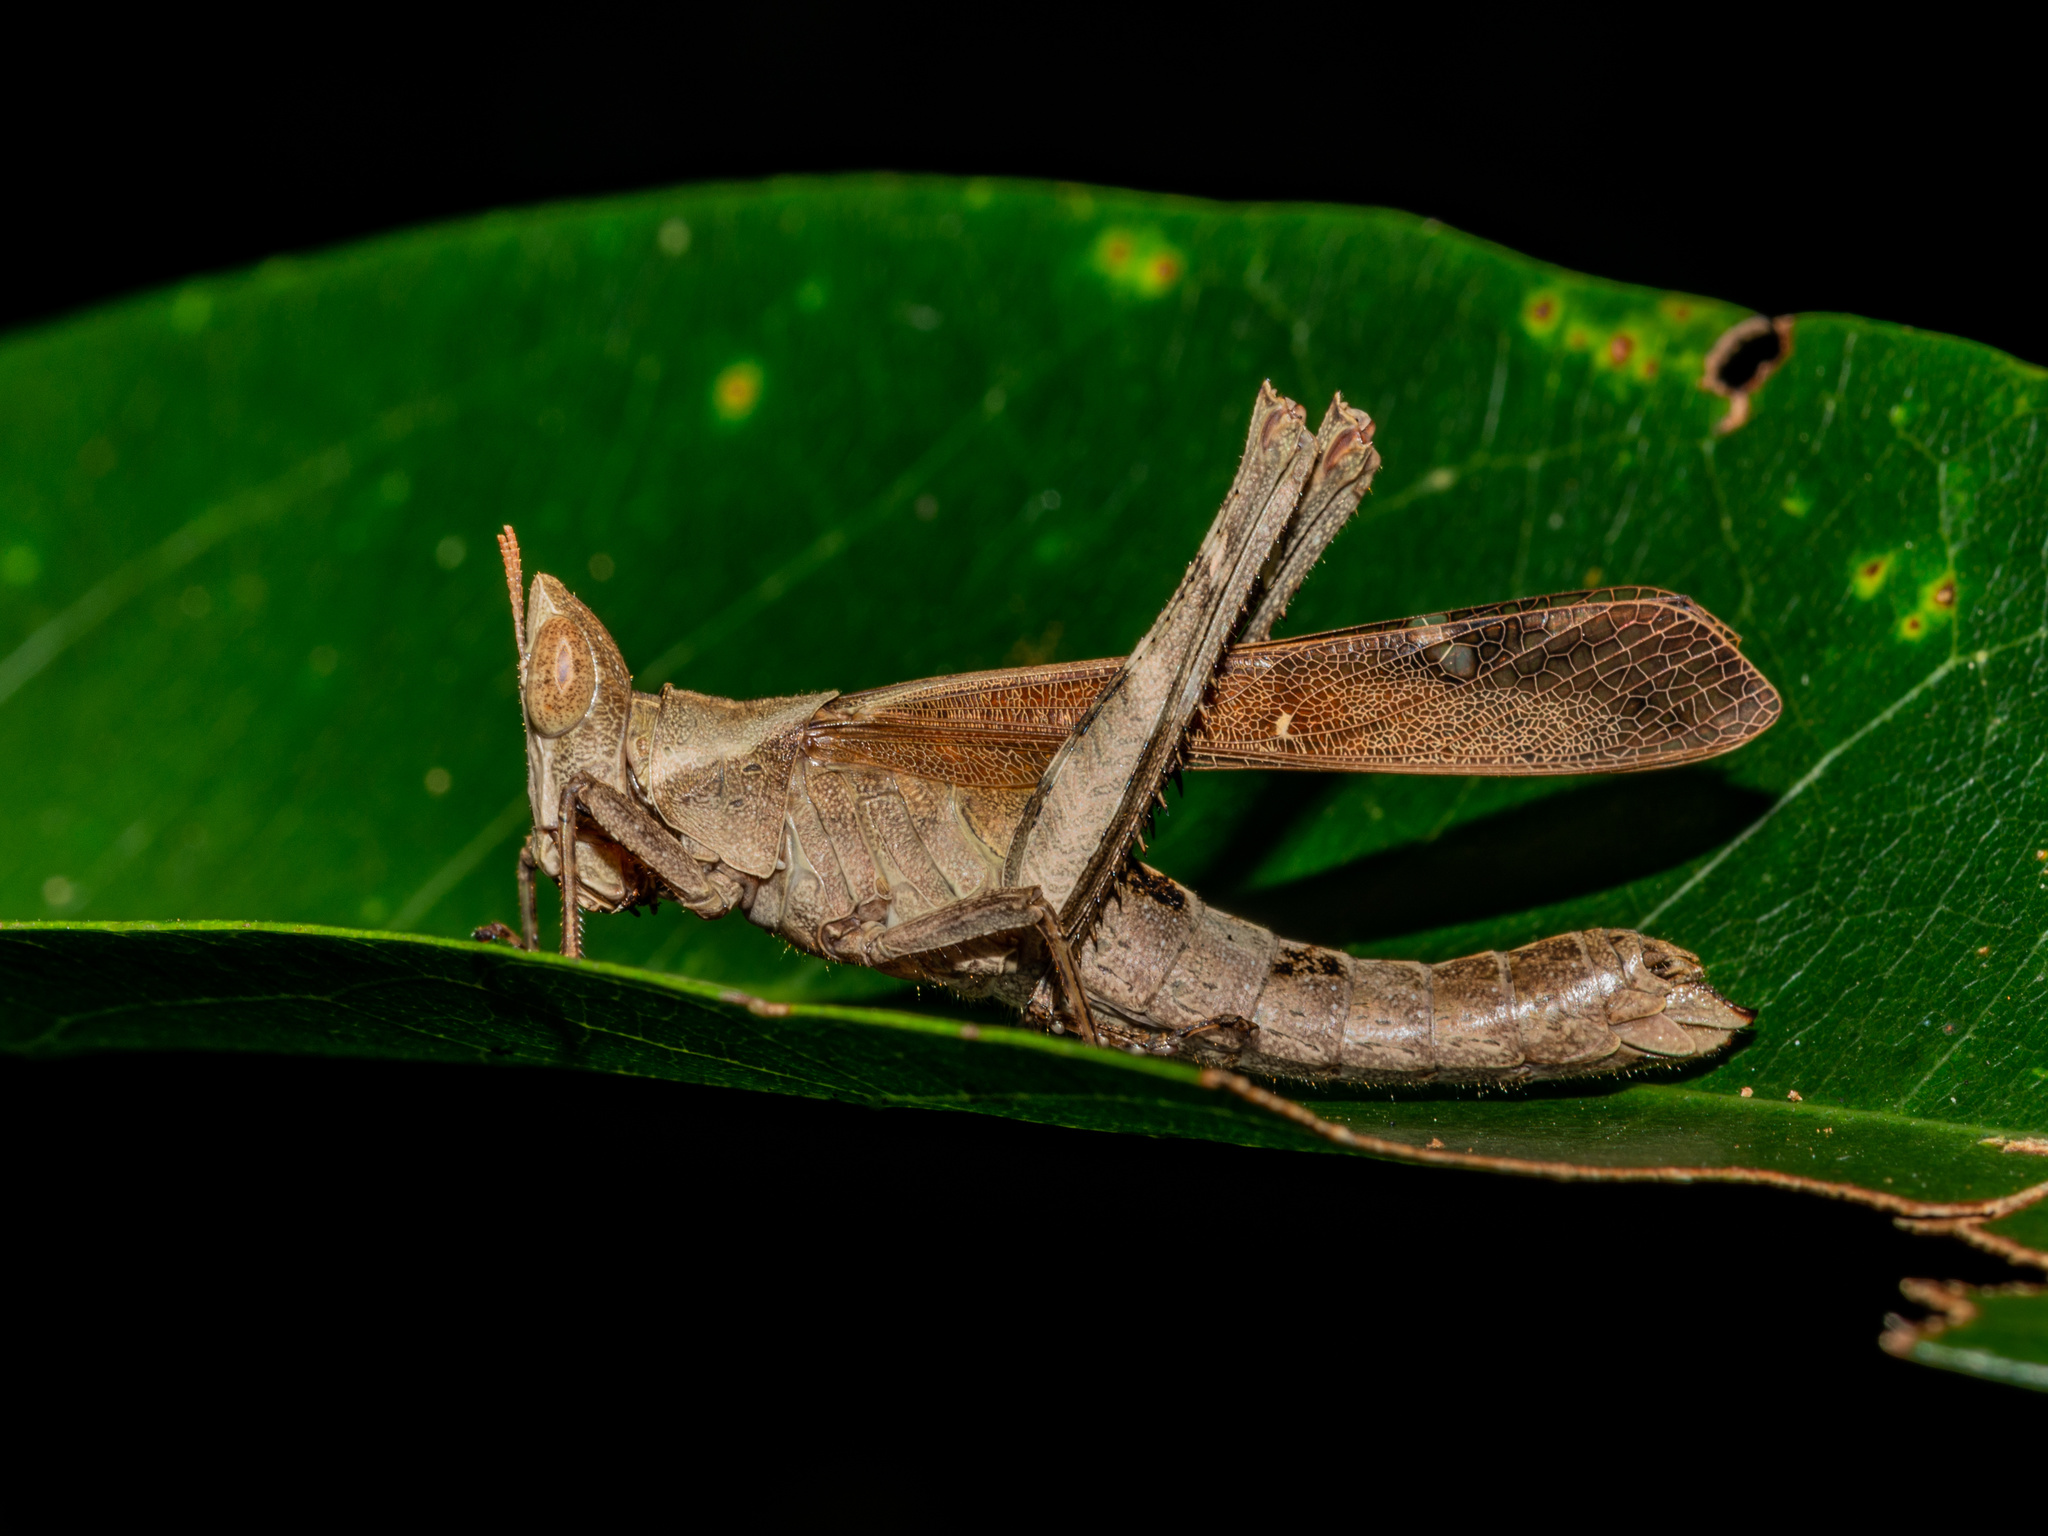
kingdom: Animalia
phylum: Arthropoda
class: Insecta
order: Orthoptera
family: Chorotypidae
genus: Erianthella
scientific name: Erianthella formosana
